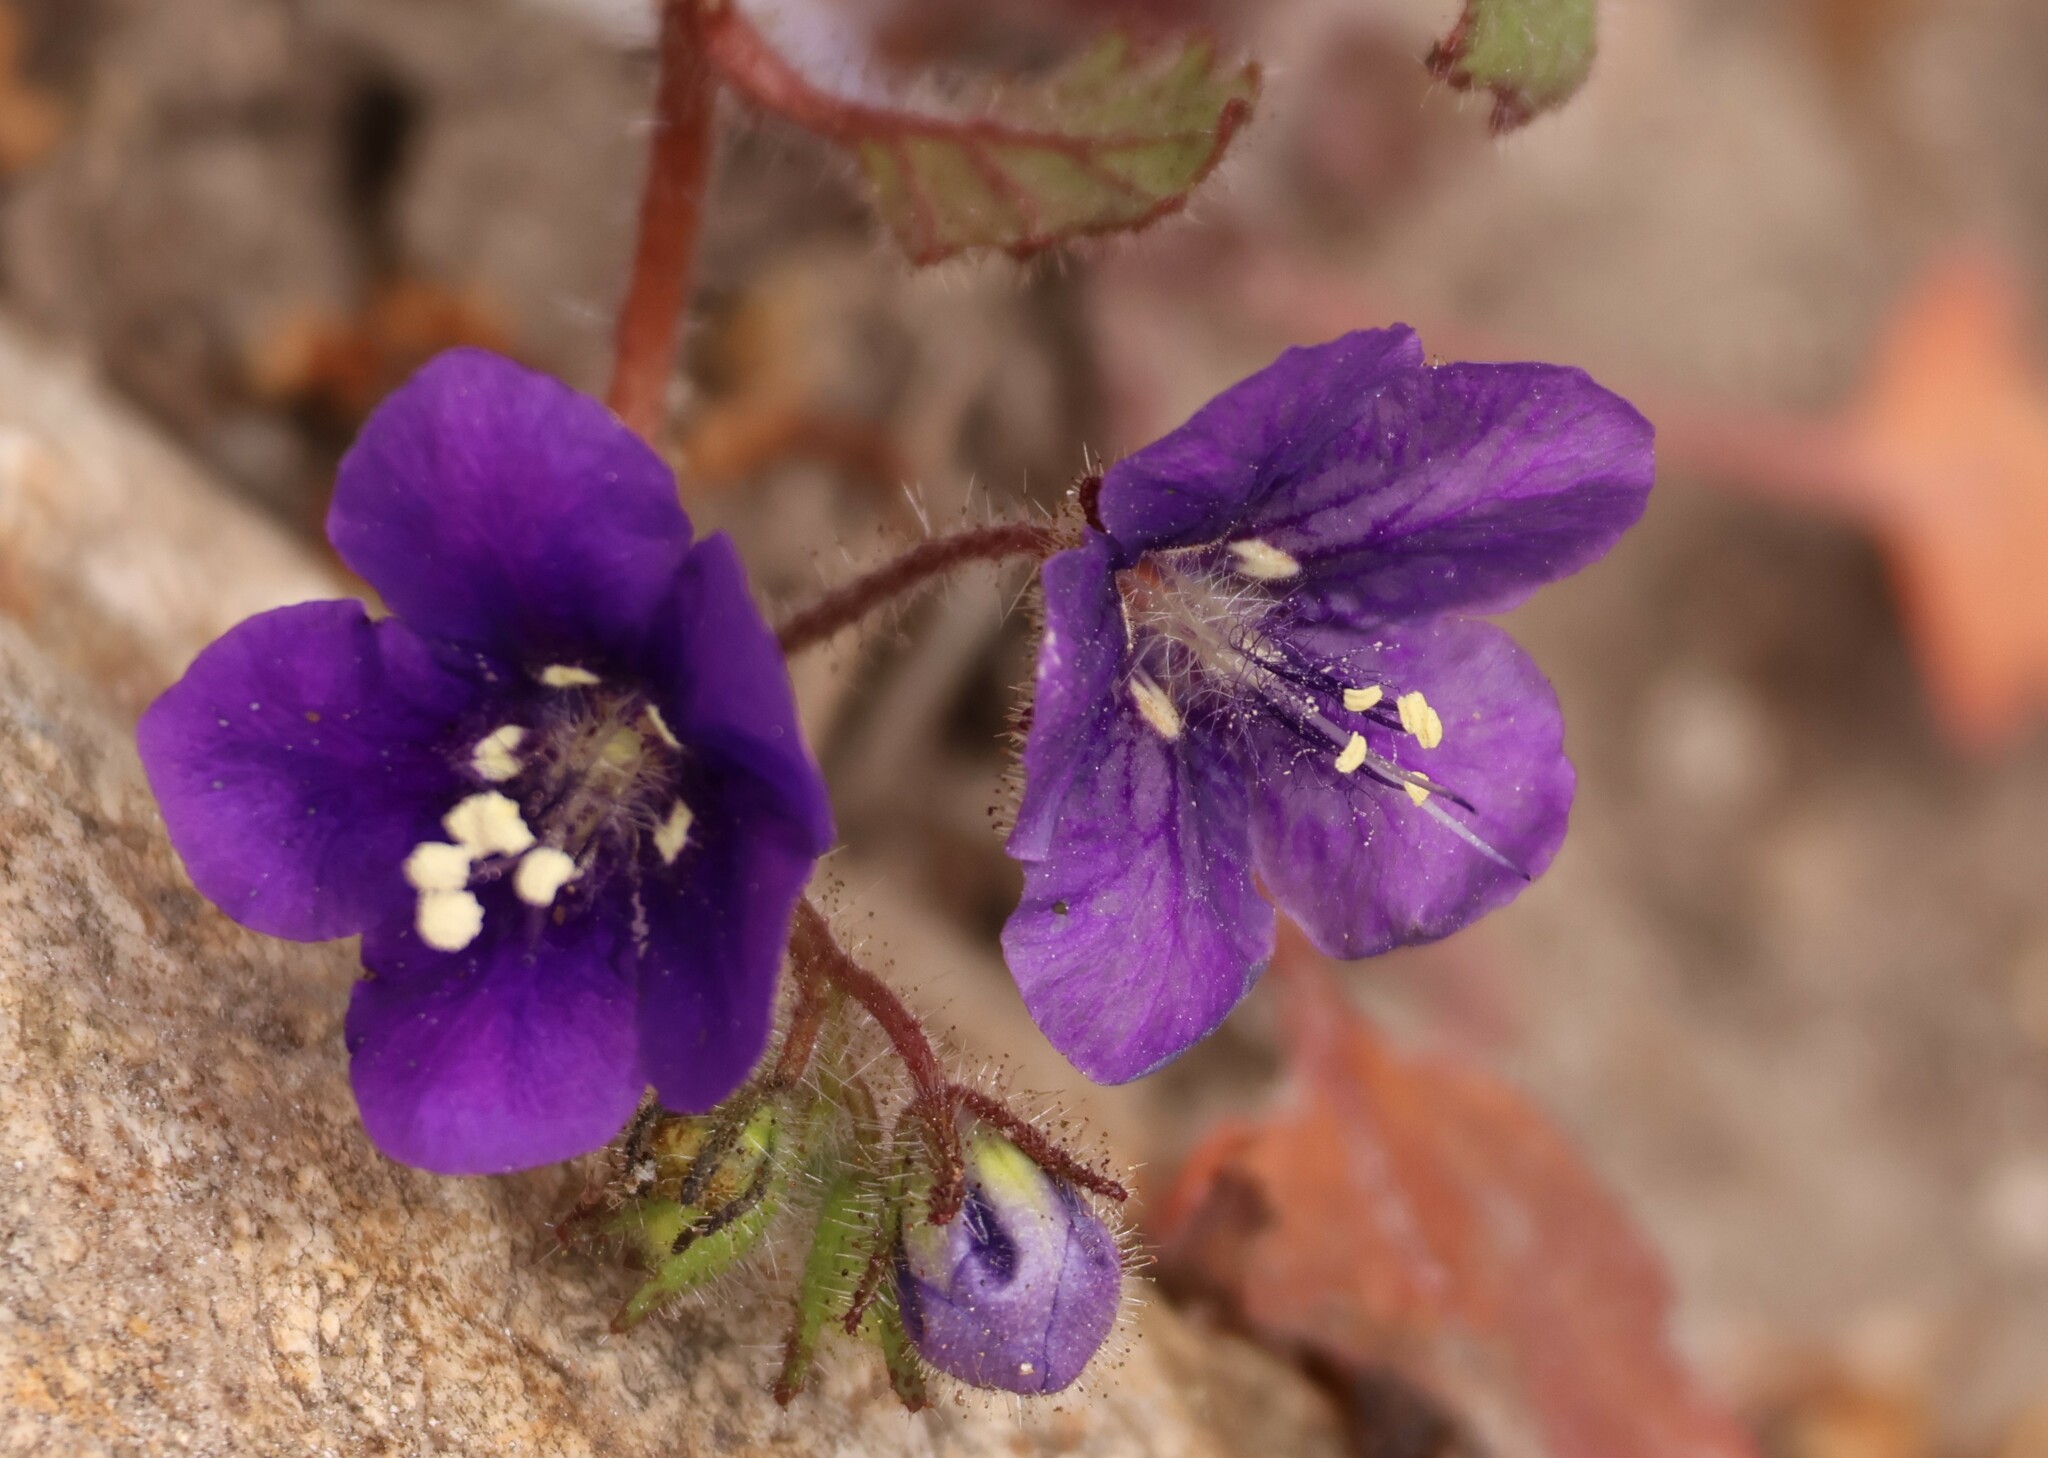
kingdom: Plantae
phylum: Tracheophyta
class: Magnoliopsida
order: Boraginales
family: Hydrophyllaceae
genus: Phacelia
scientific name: Phacelia parryi
